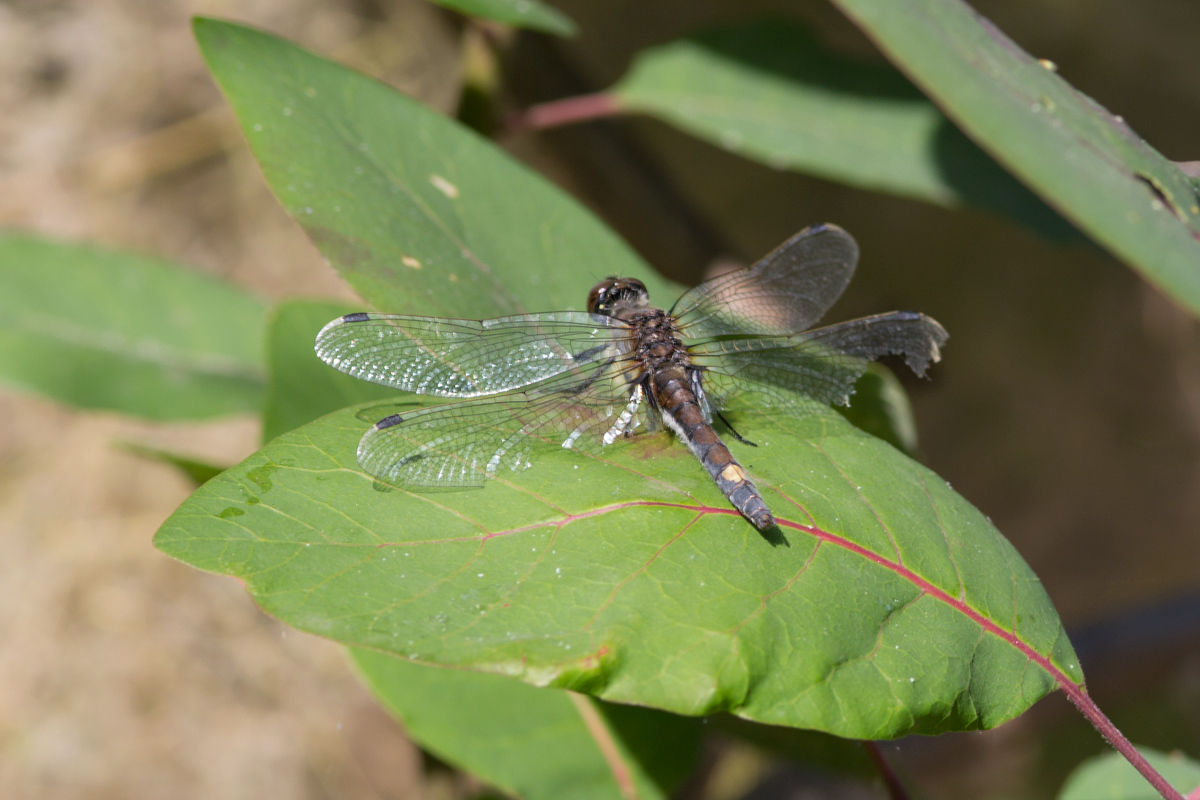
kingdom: Animalia
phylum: Arthropoda
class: Insecta
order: Odonata
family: Libellulidae
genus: Leucorrhinia
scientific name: Leucorrhinia pectoralis
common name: Yellow-spotted whiteface
